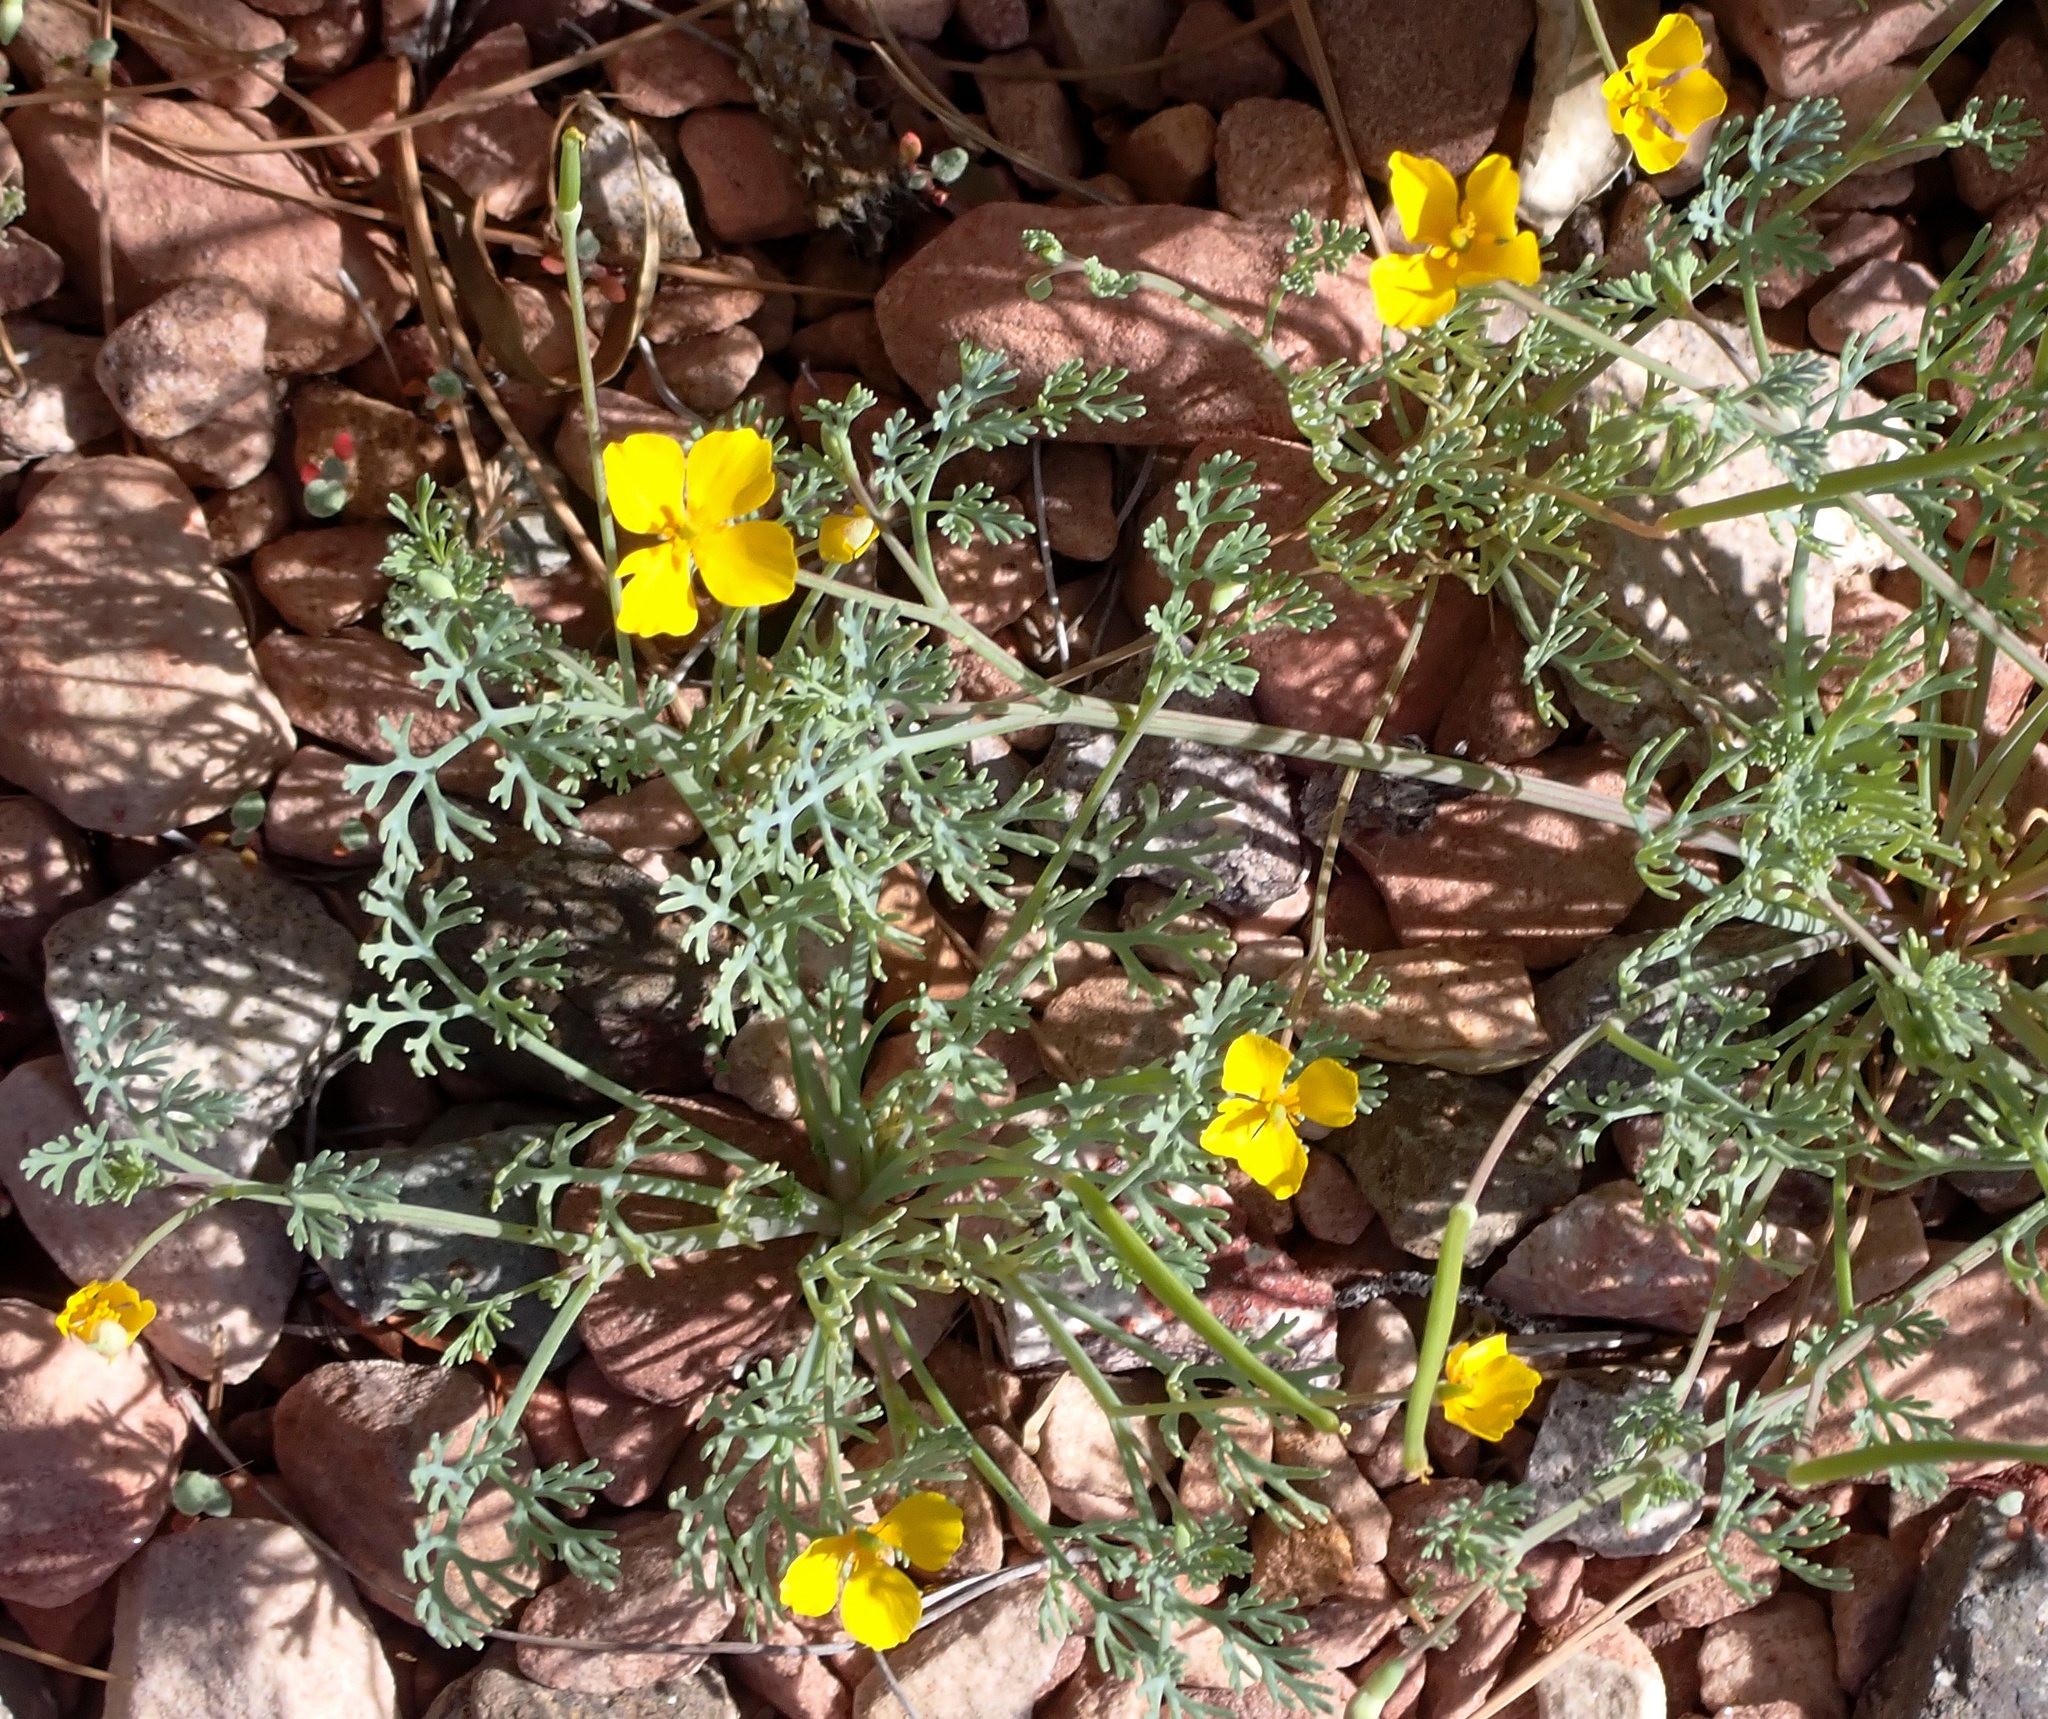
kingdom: Plantae
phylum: Tracheophyta
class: Magnoliopsida
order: Ranunculales
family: Papaveraceae
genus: Eschscholzia
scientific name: Eschscholzia minutiflora
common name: Small-flower california-poppy
